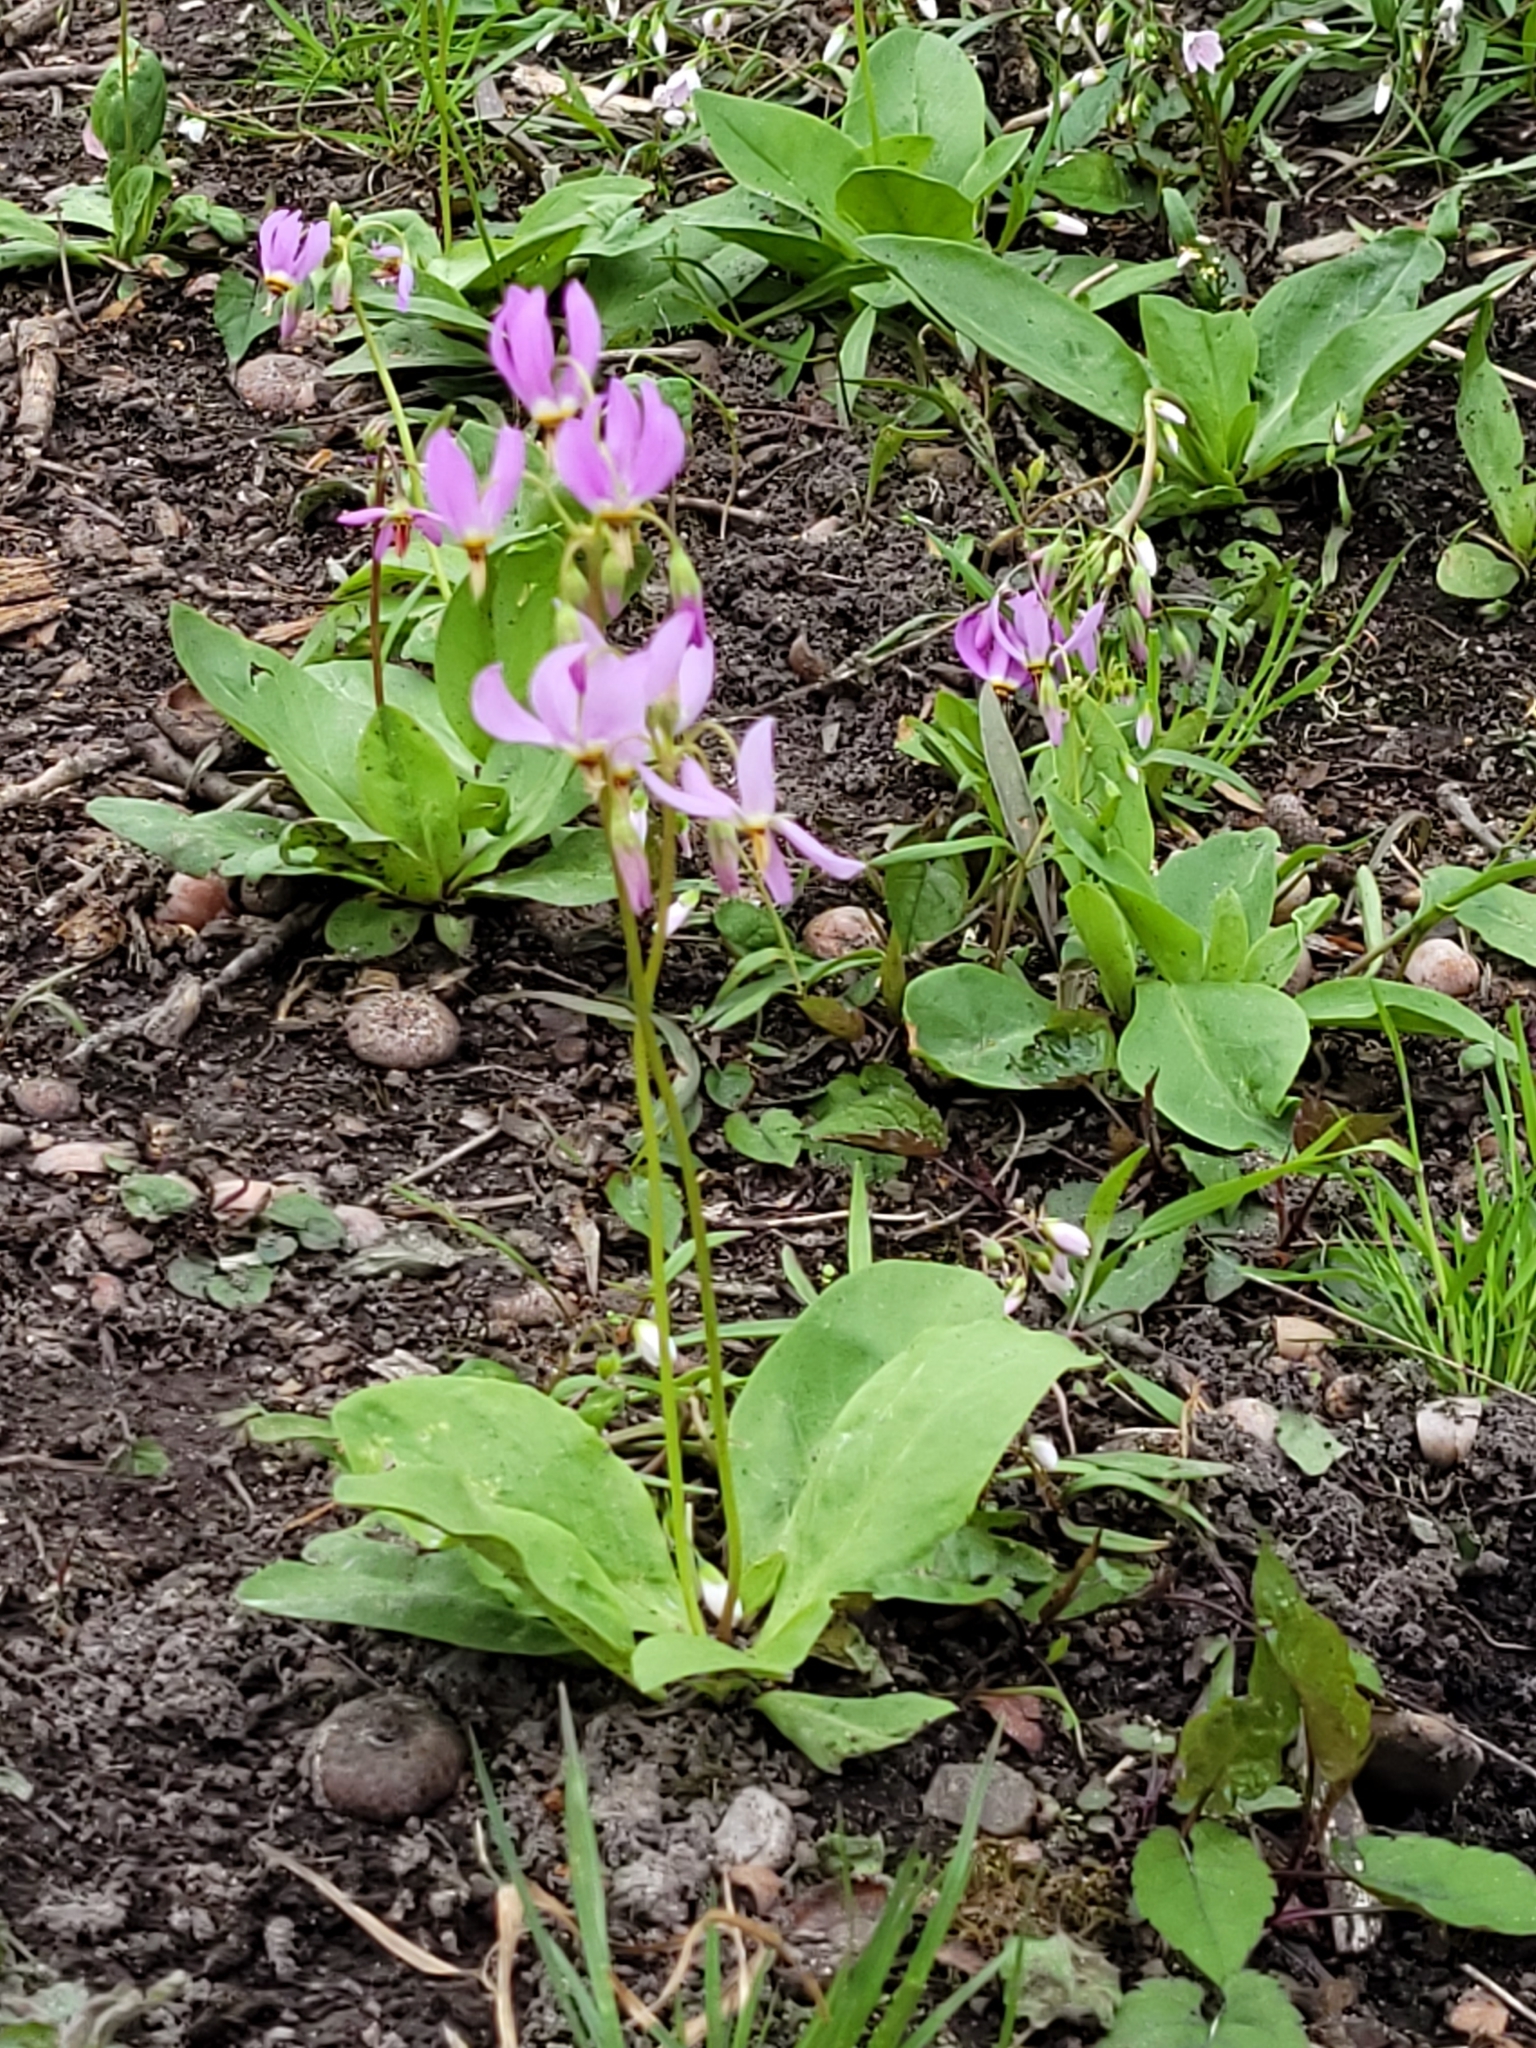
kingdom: Plantae
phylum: Tracheophyta
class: Magnoliopsida
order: Ericales
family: Primulaceae
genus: Dodecatheon
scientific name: Dodecatheon meadia
